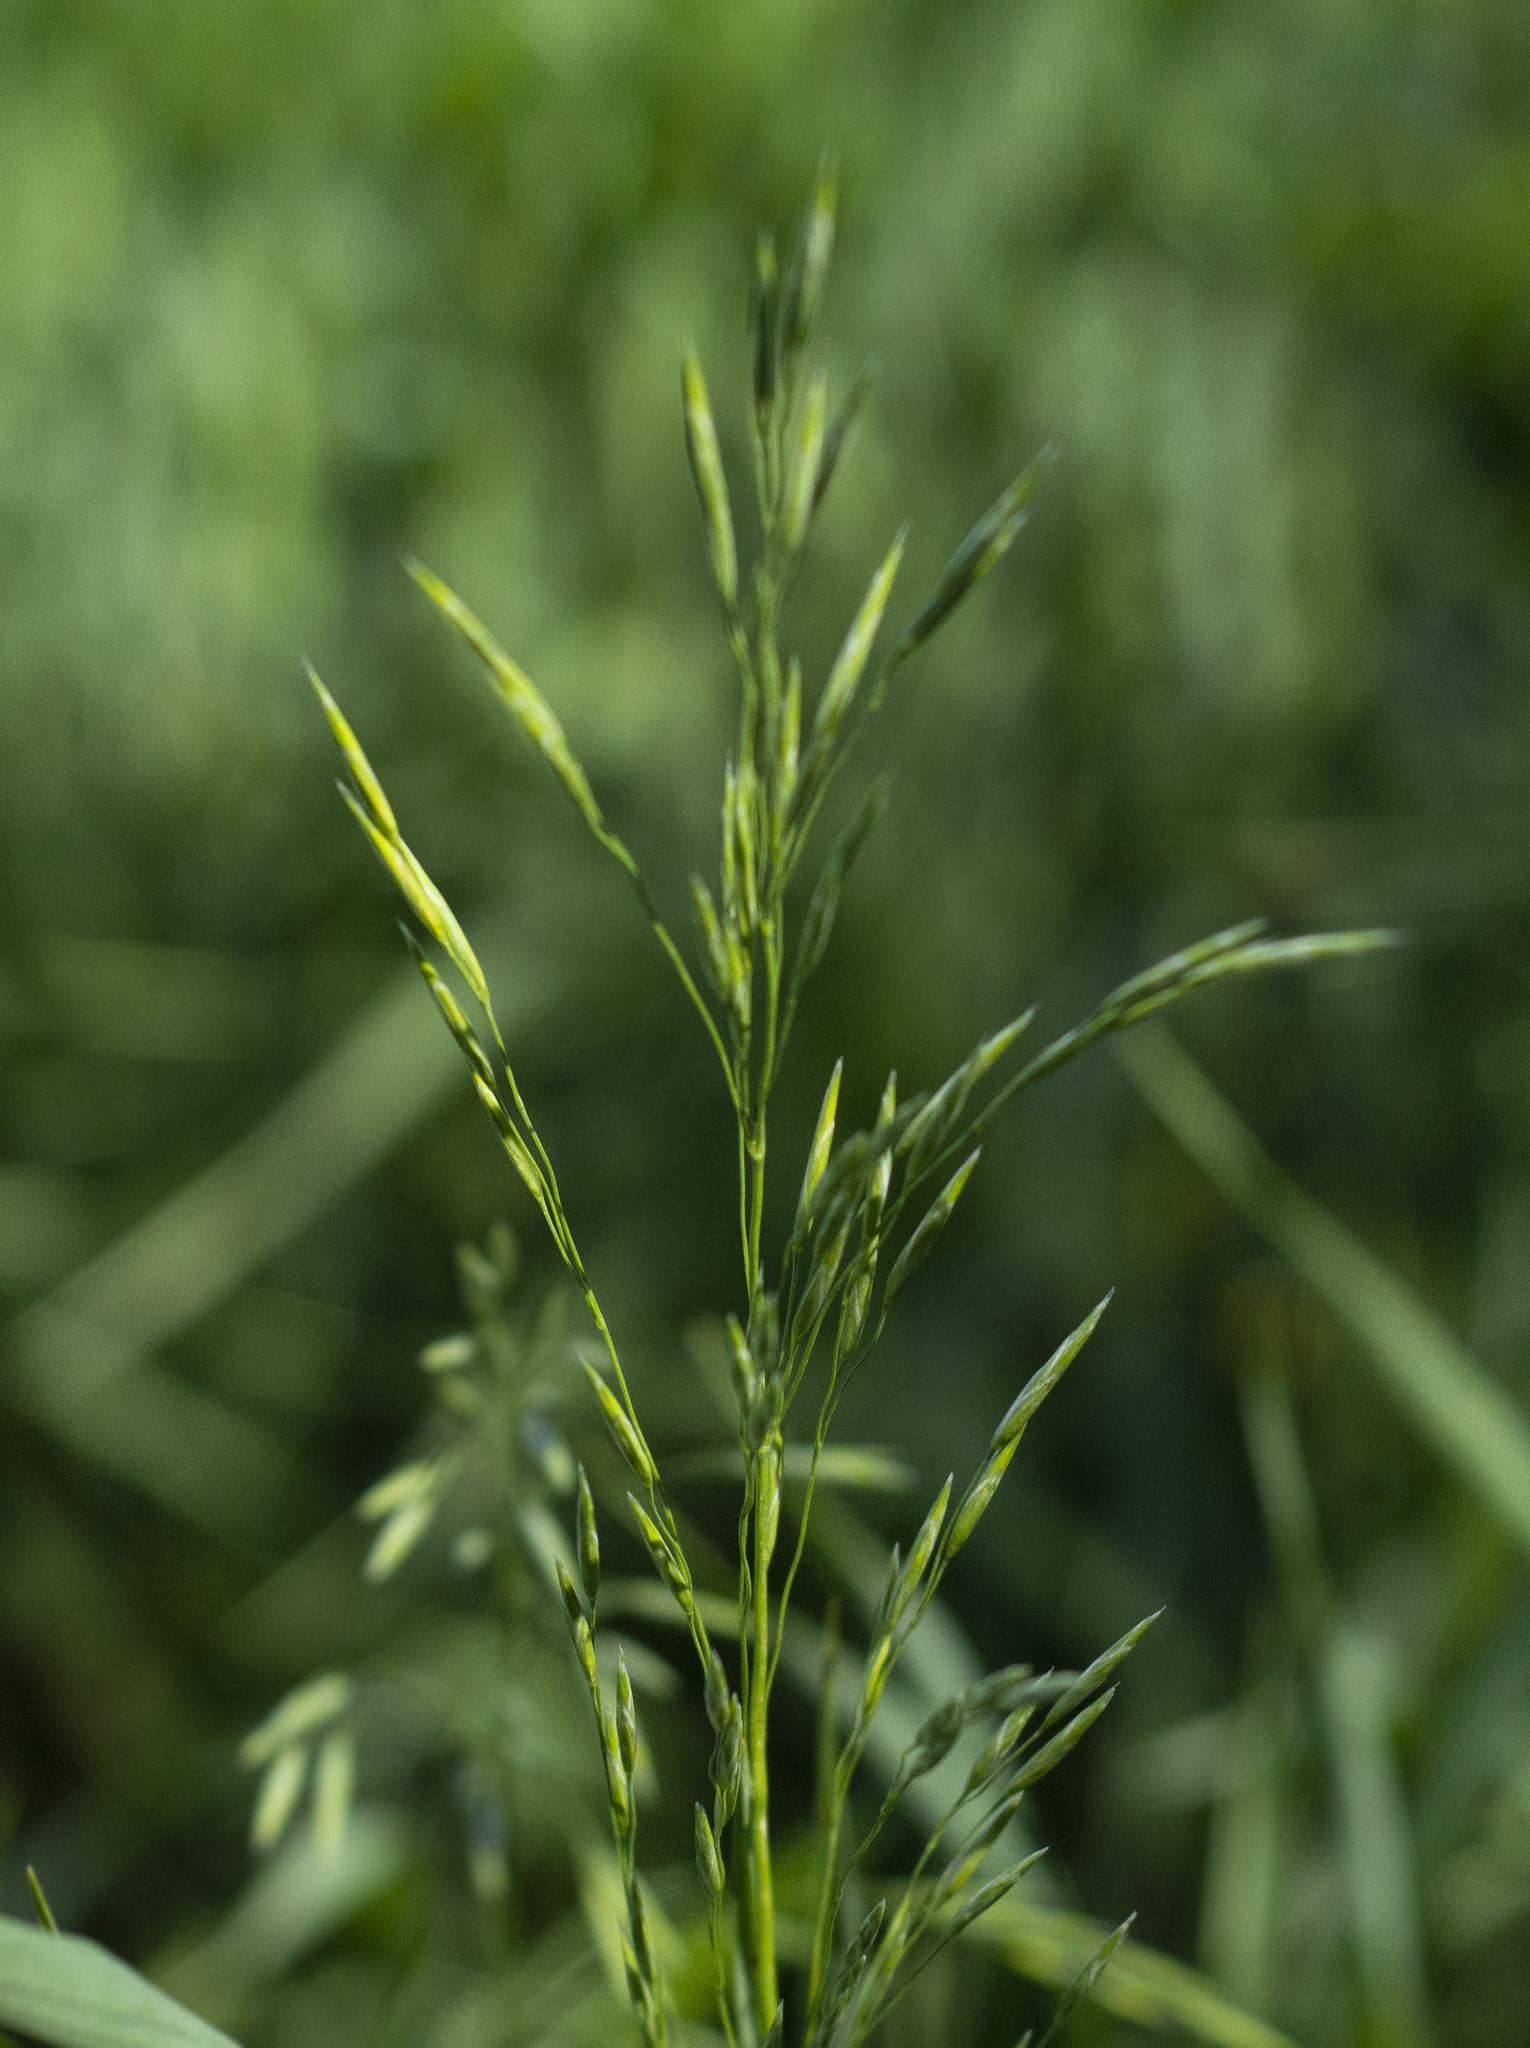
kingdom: Plantae
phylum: Tracheophyta
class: Liliopsida
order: Poales
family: Poaceae
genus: Bromus
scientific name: Bromus inermis
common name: Smooth brome
